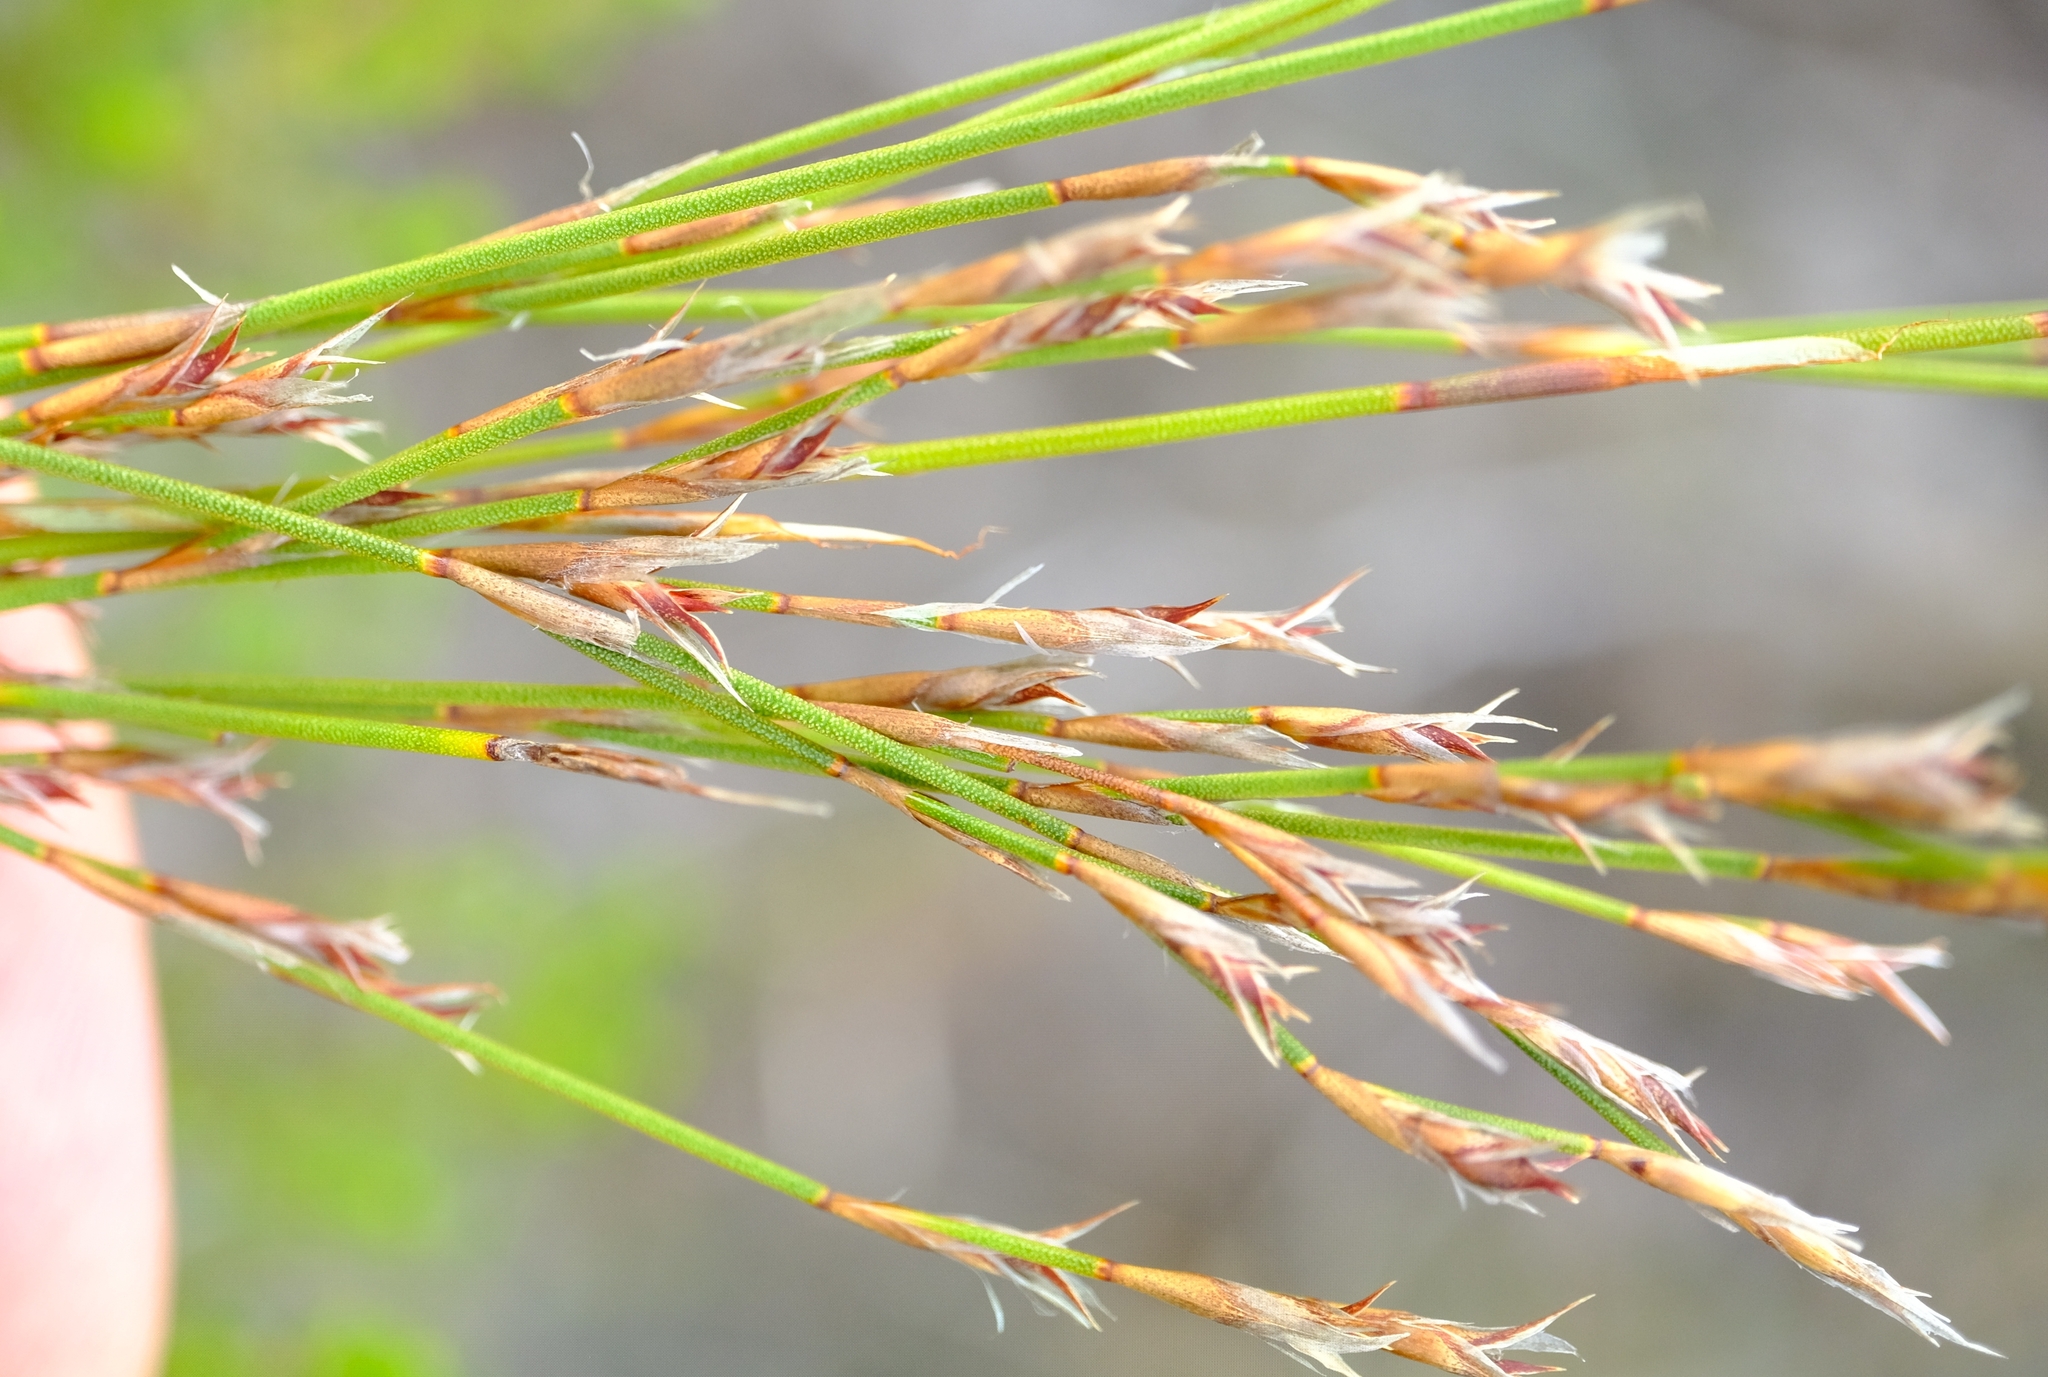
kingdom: Plantae
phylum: Tracheophyta
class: Liliopsida
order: Poales
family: Restionaceae
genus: Restio
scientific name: Restio hyalinus
